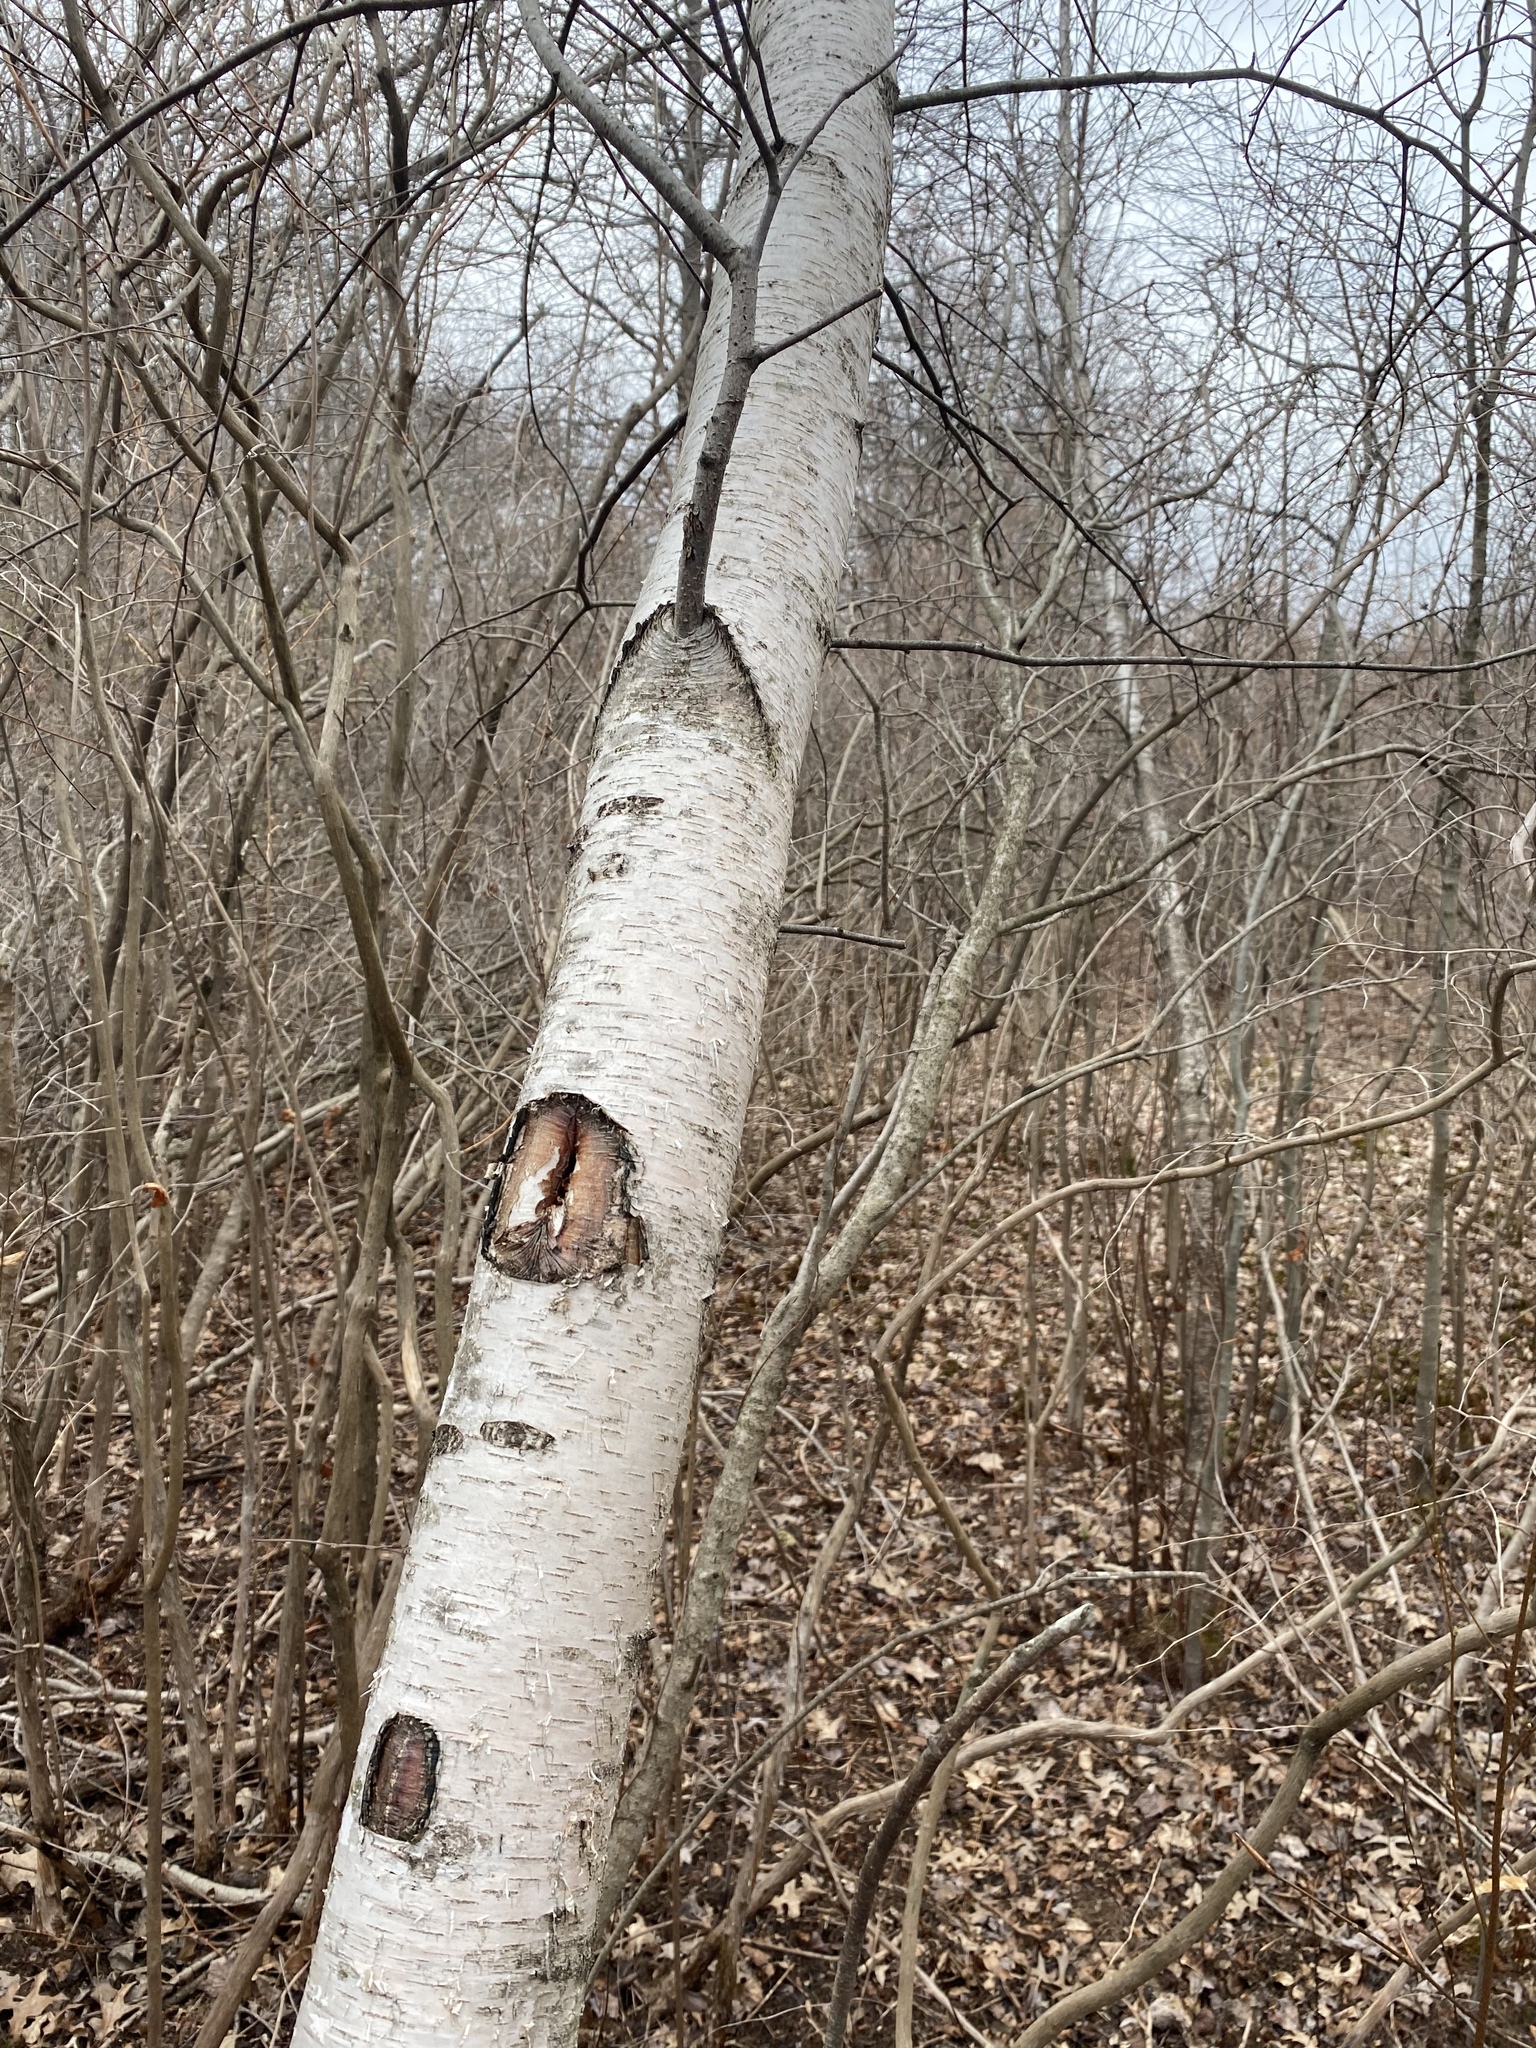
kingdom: Plantae
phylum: Tracheophyta
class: Magnoliopsida
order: Fagales
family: Betulaceae
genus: Betula
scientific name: Betula populifolia
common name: Fire birch
